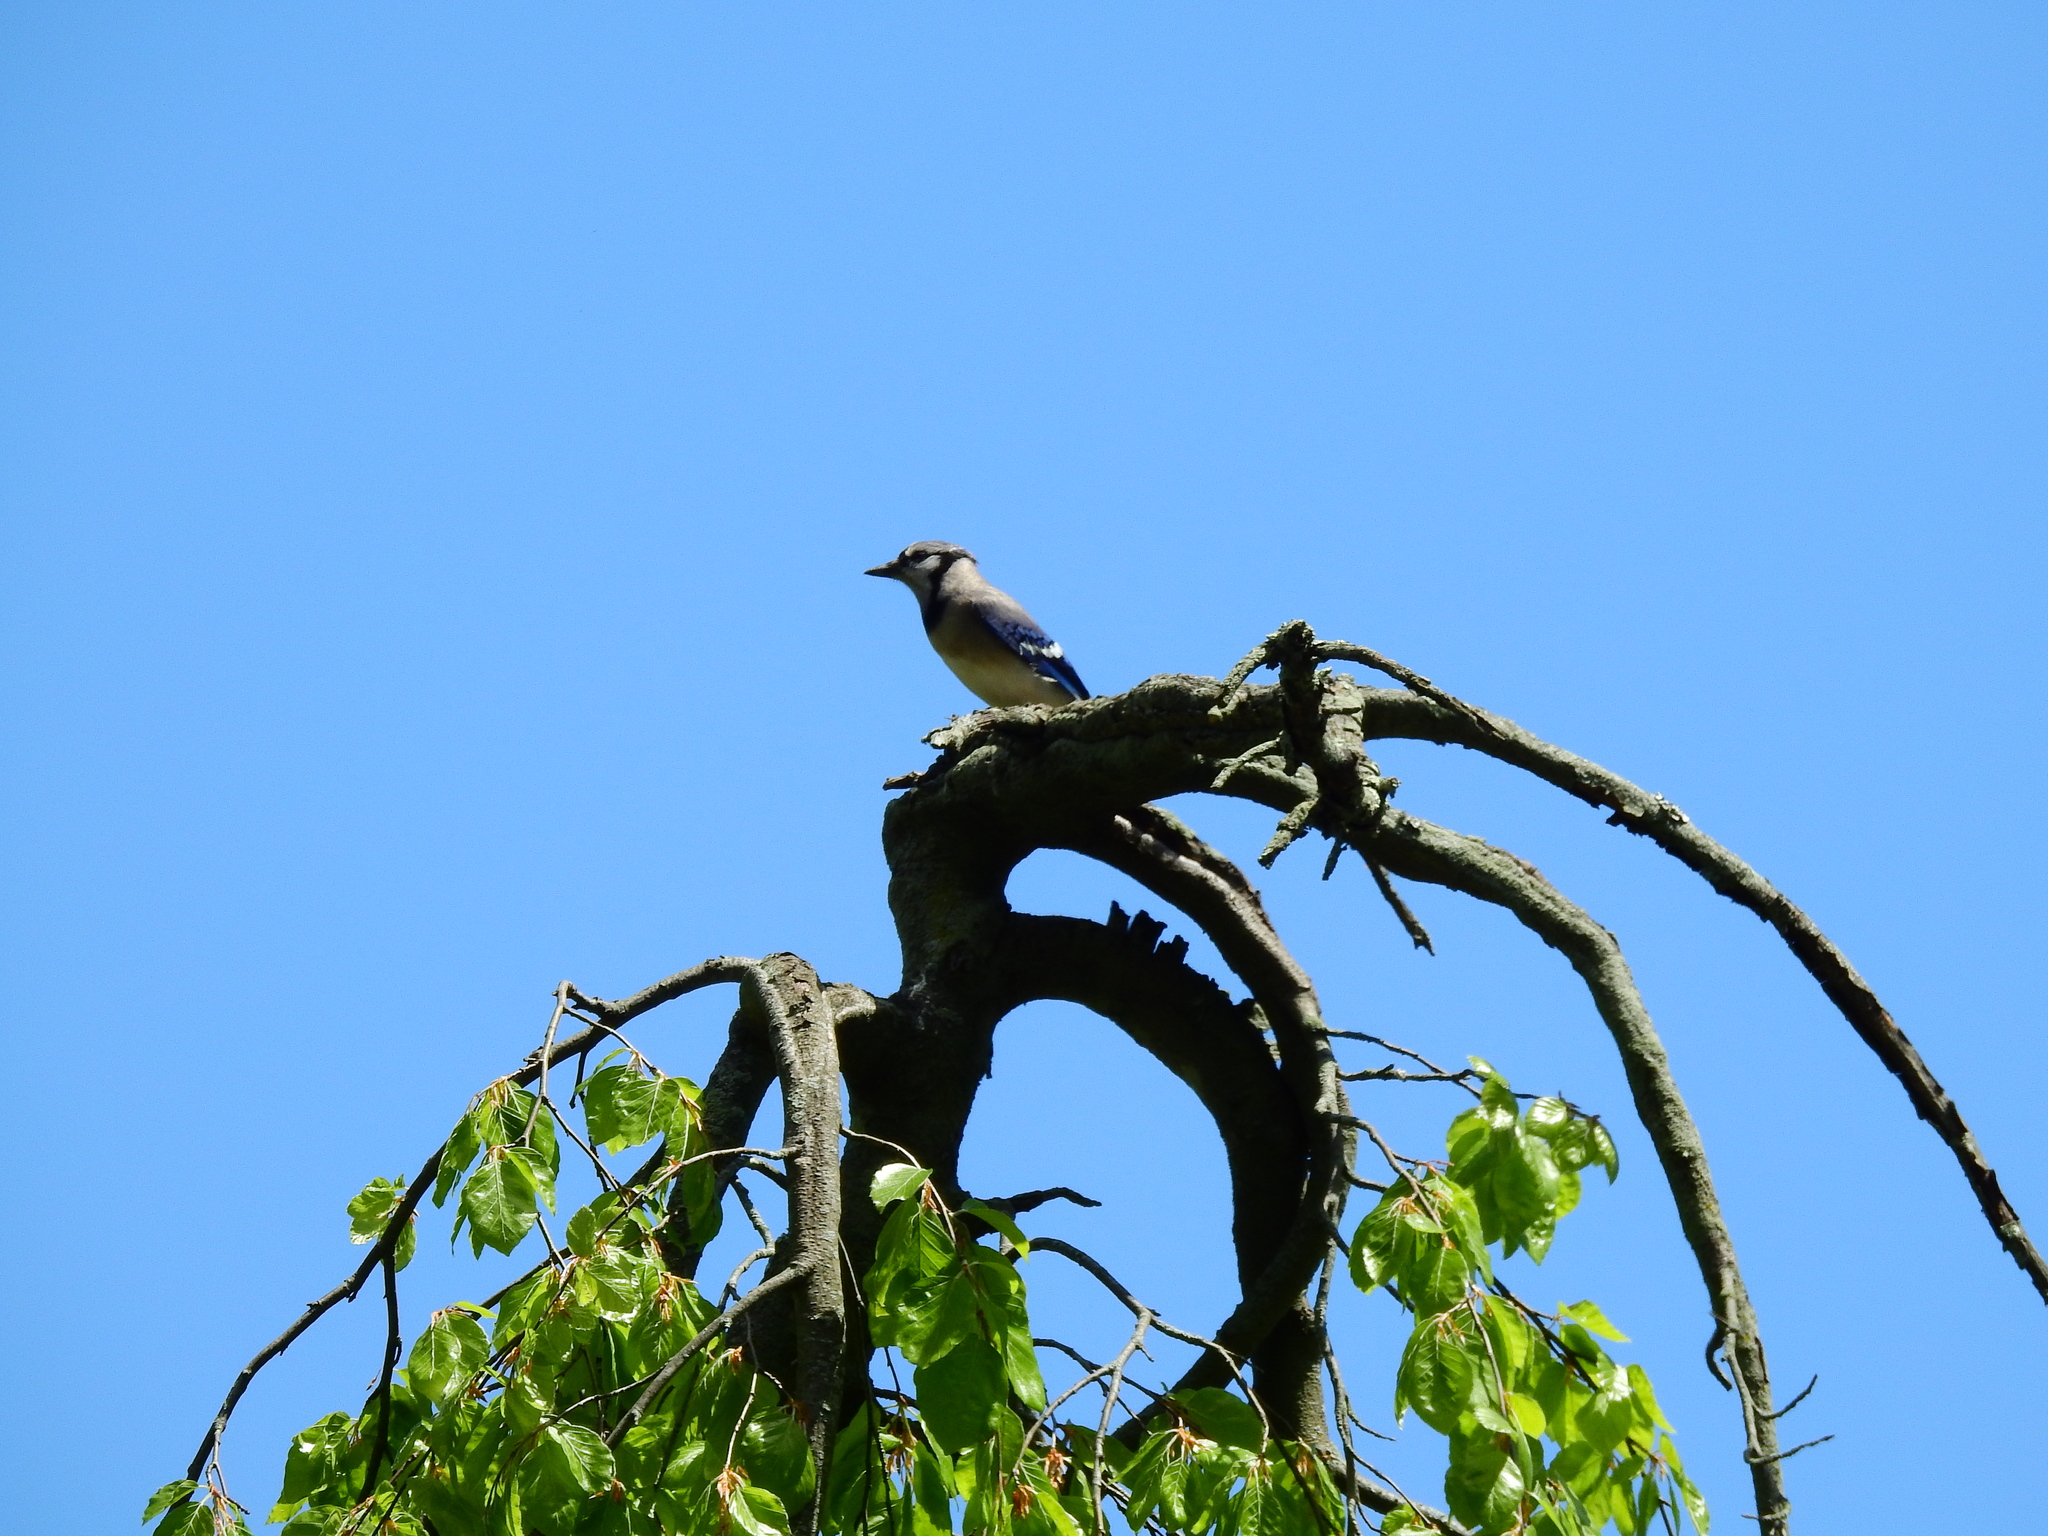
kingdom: Animalia
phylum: Chordata
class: Aves
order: Passeriformes
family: Corvidae
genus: Cyanocitta
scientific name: Cyanocitta cristata
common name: Blue jay
